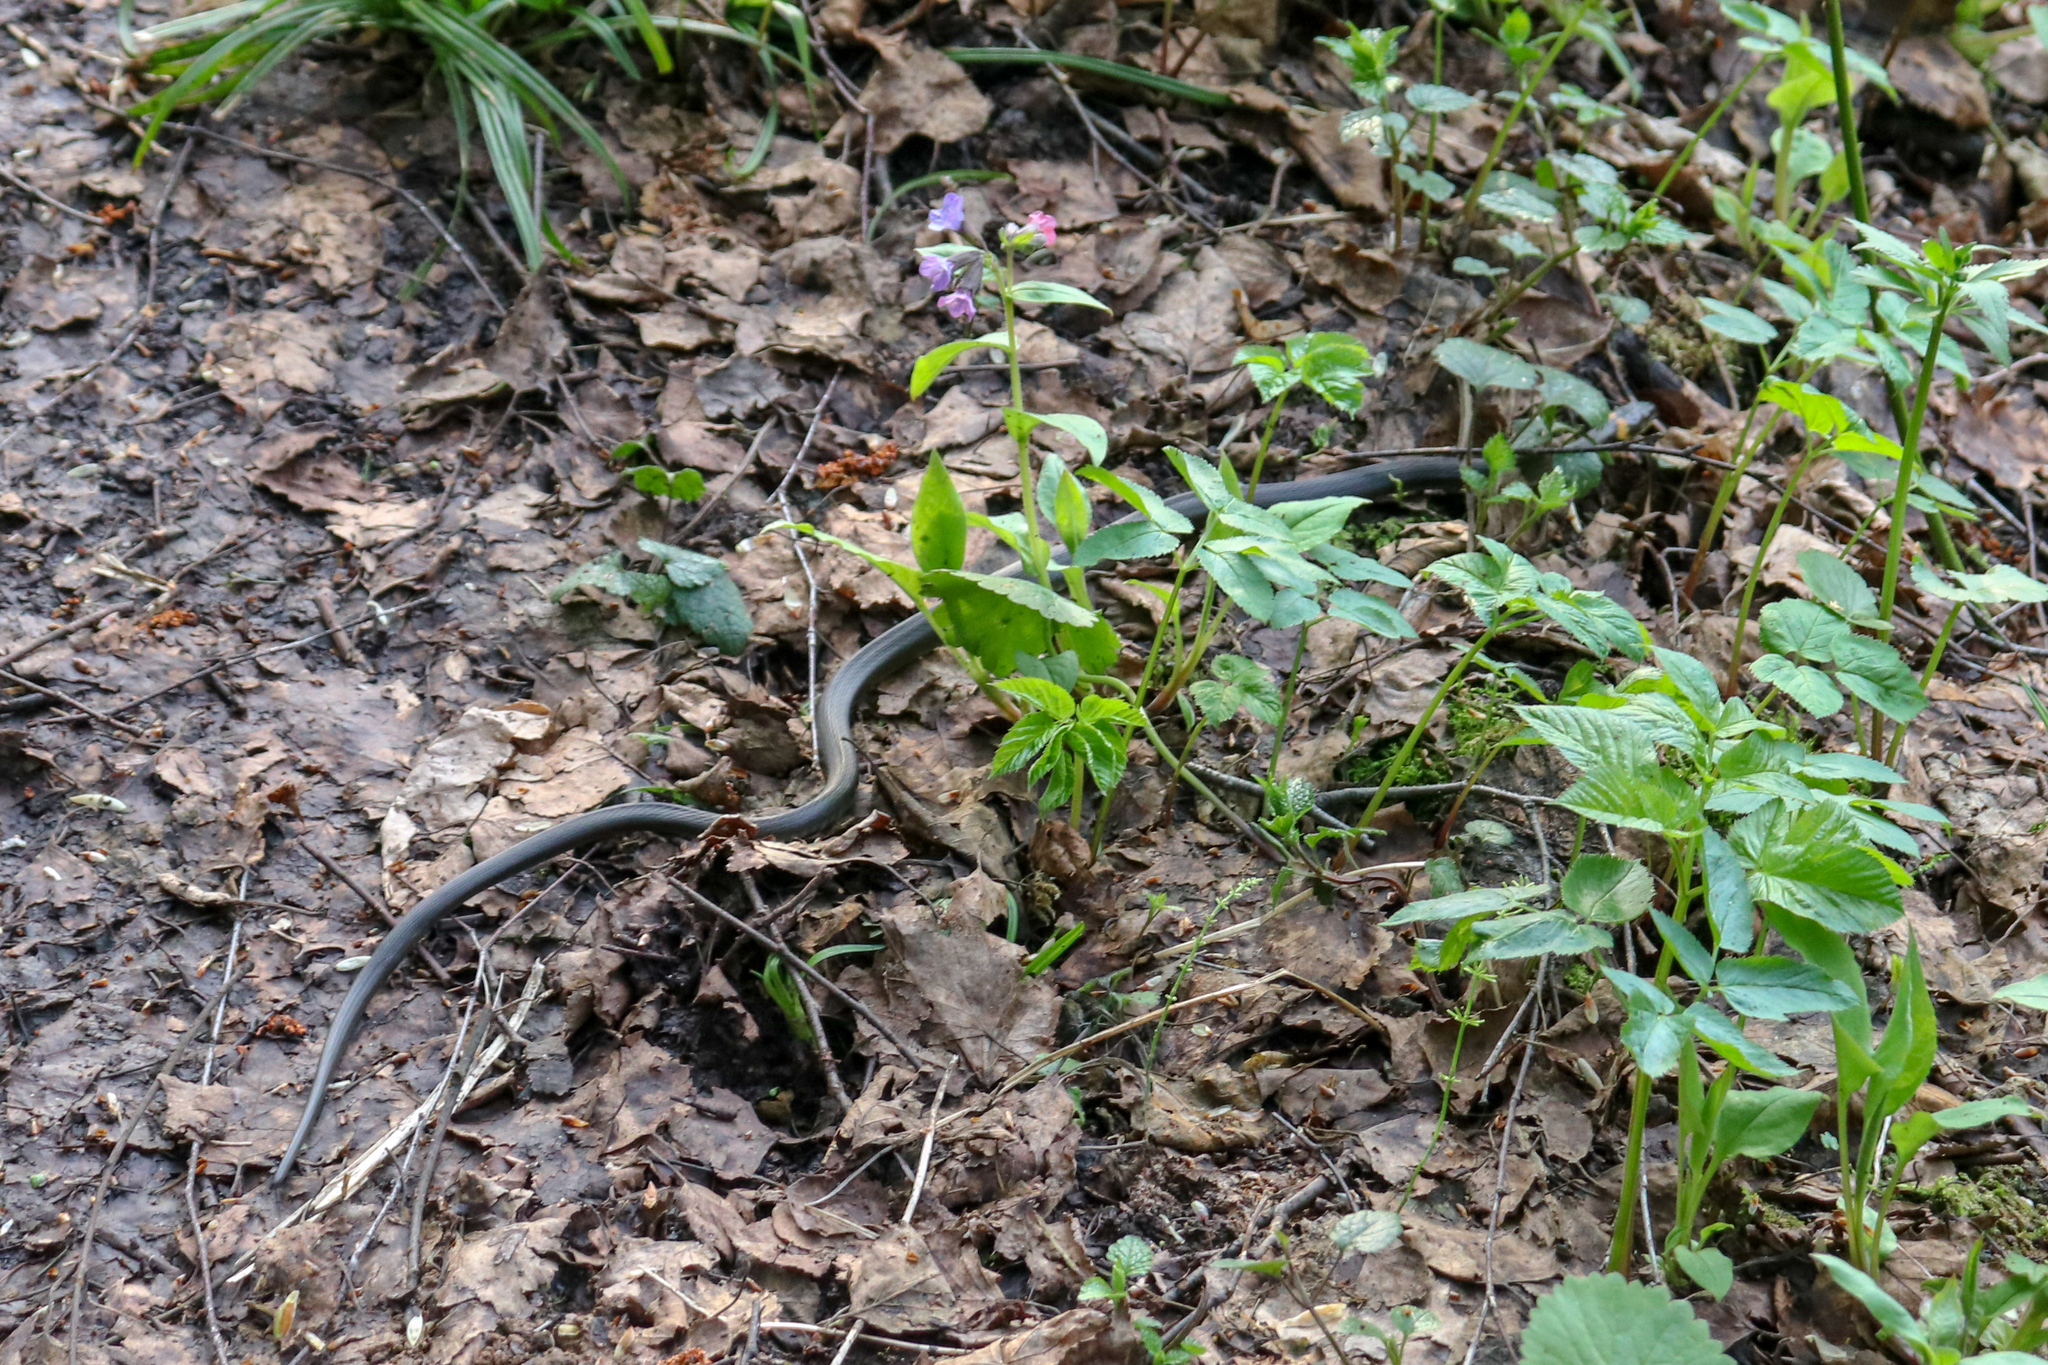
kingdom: Animalia
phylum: Chordata
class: Squamata
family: Colubridae
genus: Natrix
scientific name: Natrix natrix
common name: Grass snake
